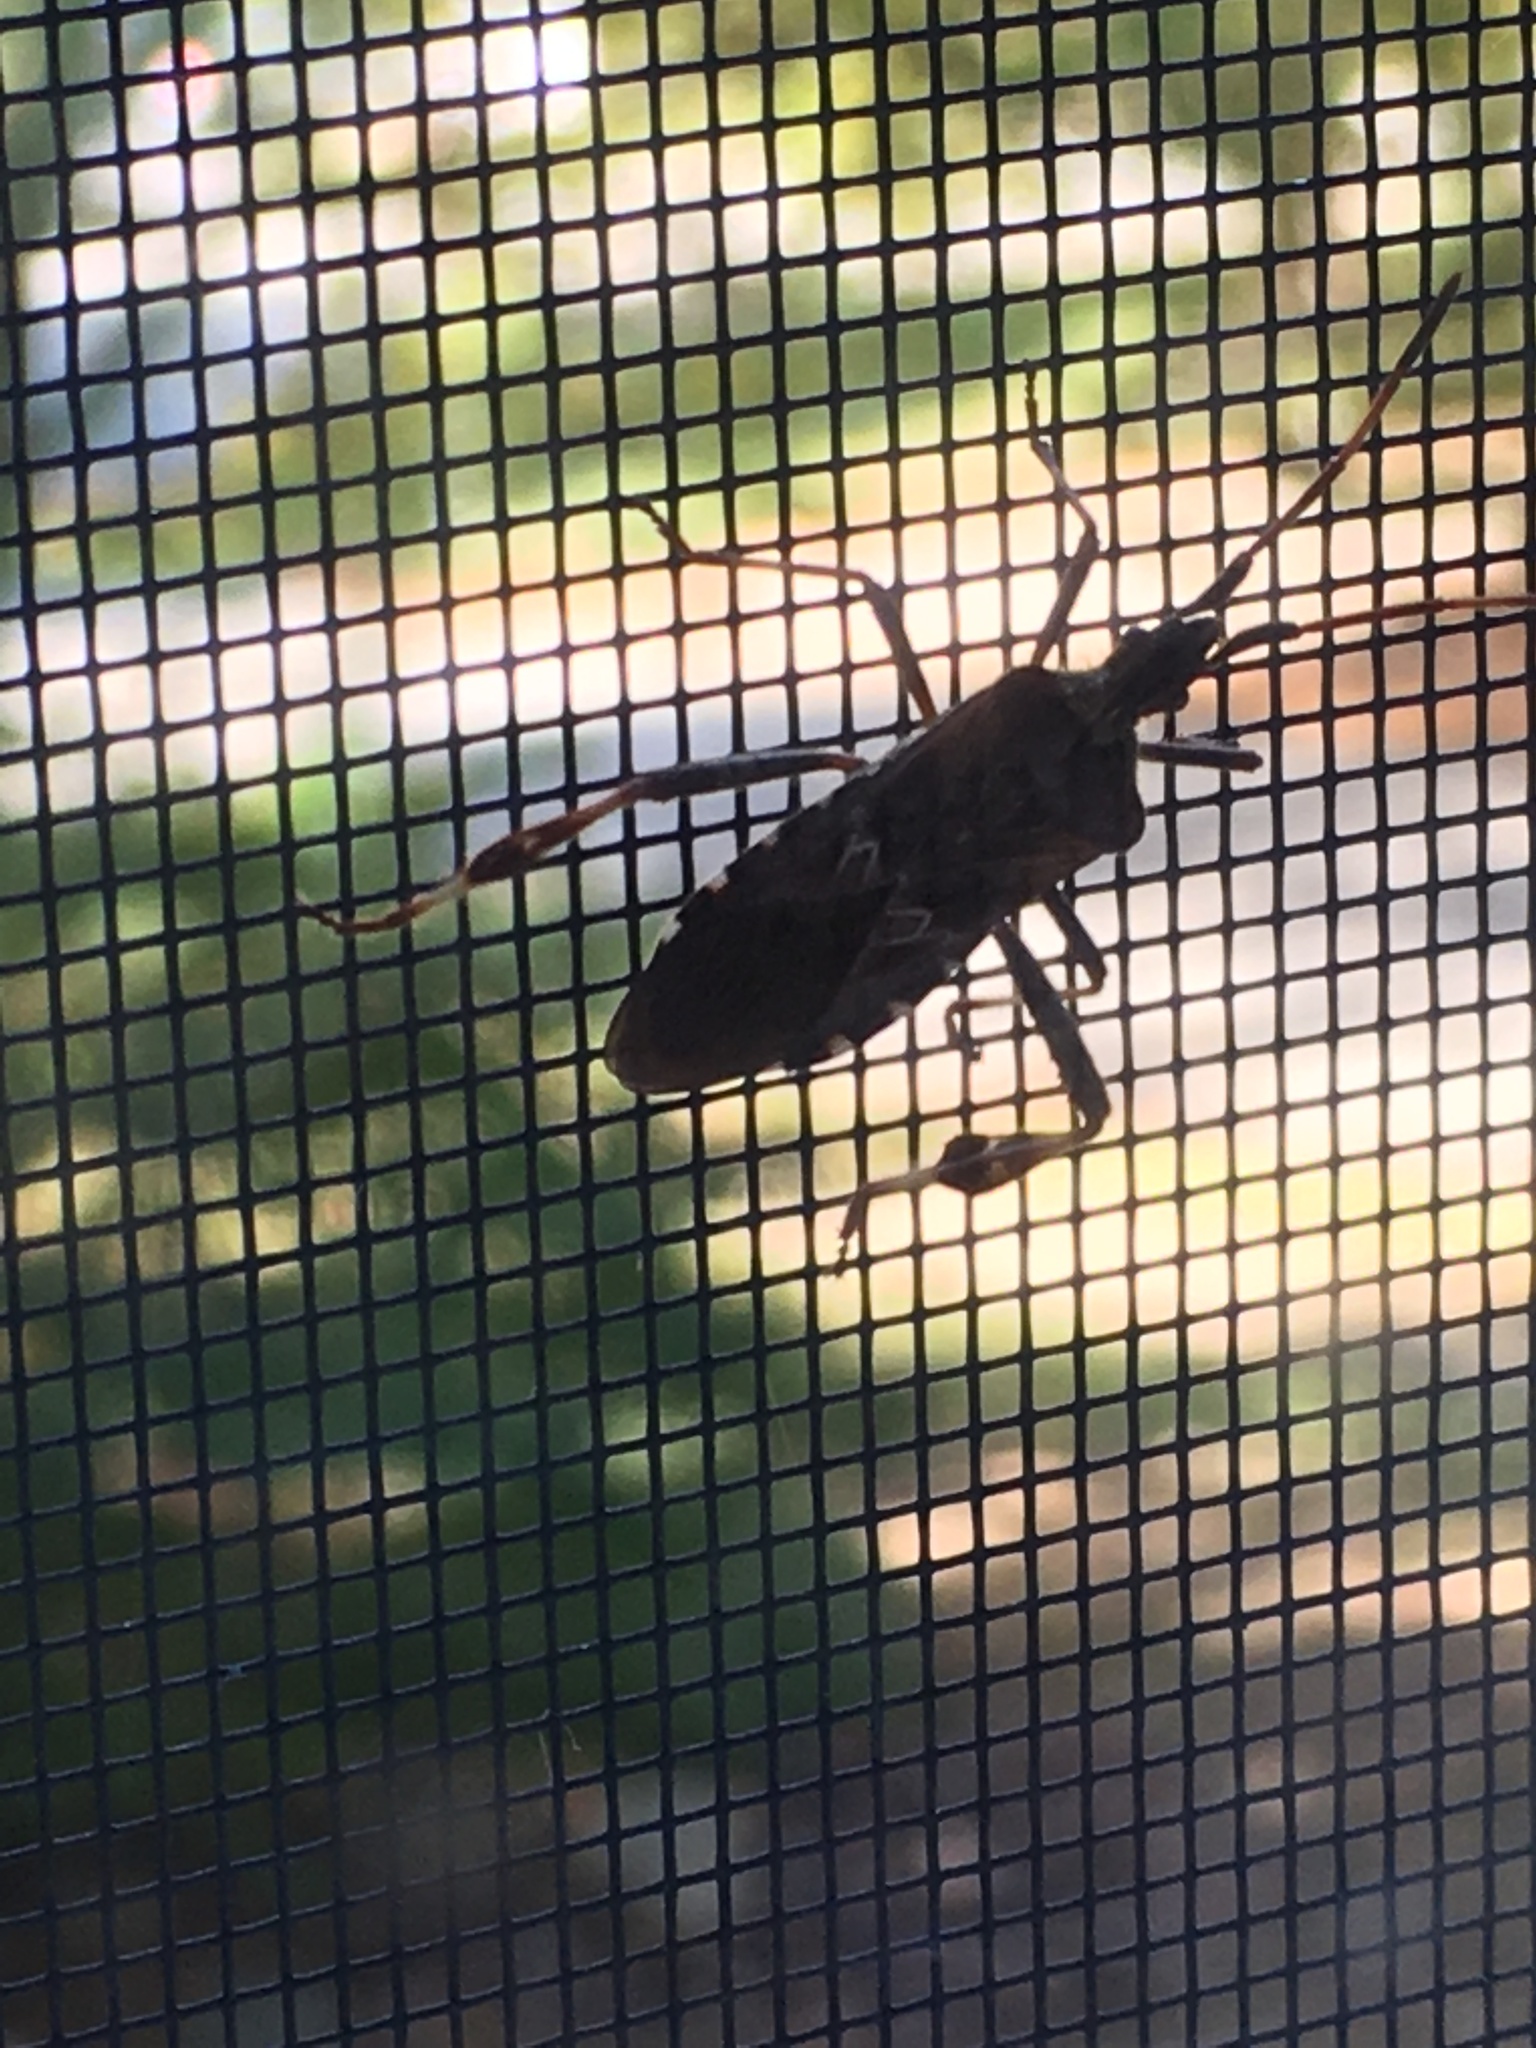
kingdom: Animalia
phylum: Arthropoda
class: Insecta
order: Hemiptera
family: Coreidae
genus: Leptoglossus
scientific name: Leptoglossus occidentalis
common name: Western conifer-seed bug
